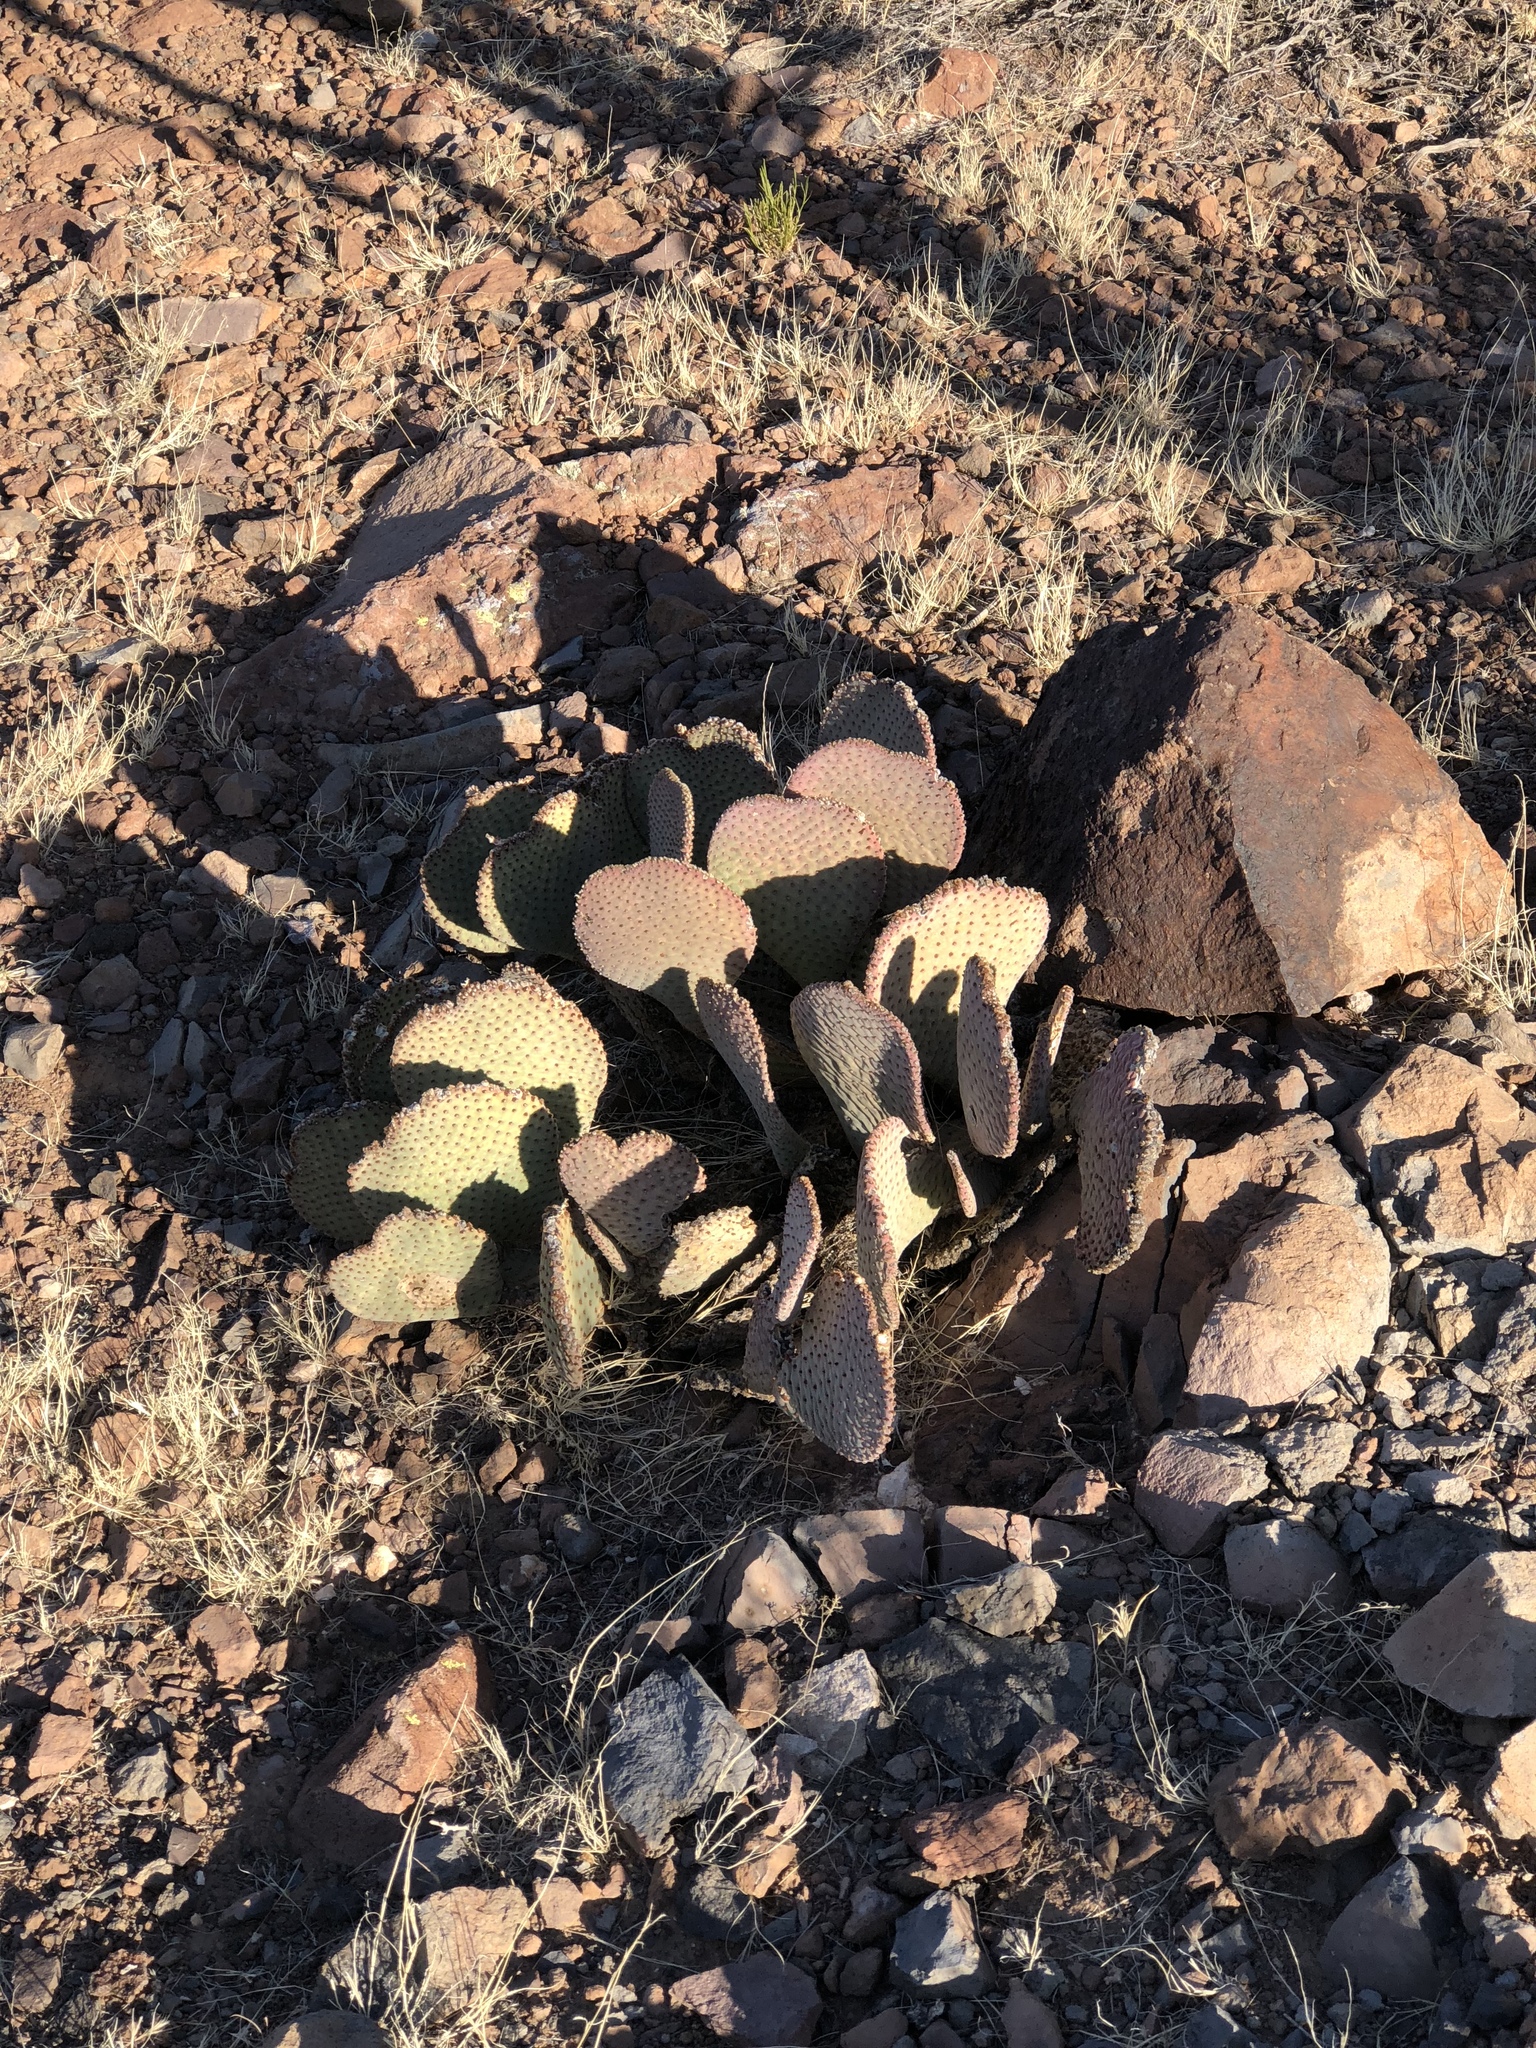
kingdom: Plantae
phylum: Tracheophyta
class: Magnoliopsida
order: Caryophyllales
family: Cactaceae
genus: Opuntia
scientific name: Opuntia basilaris
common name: Beavertail prickly-pear
